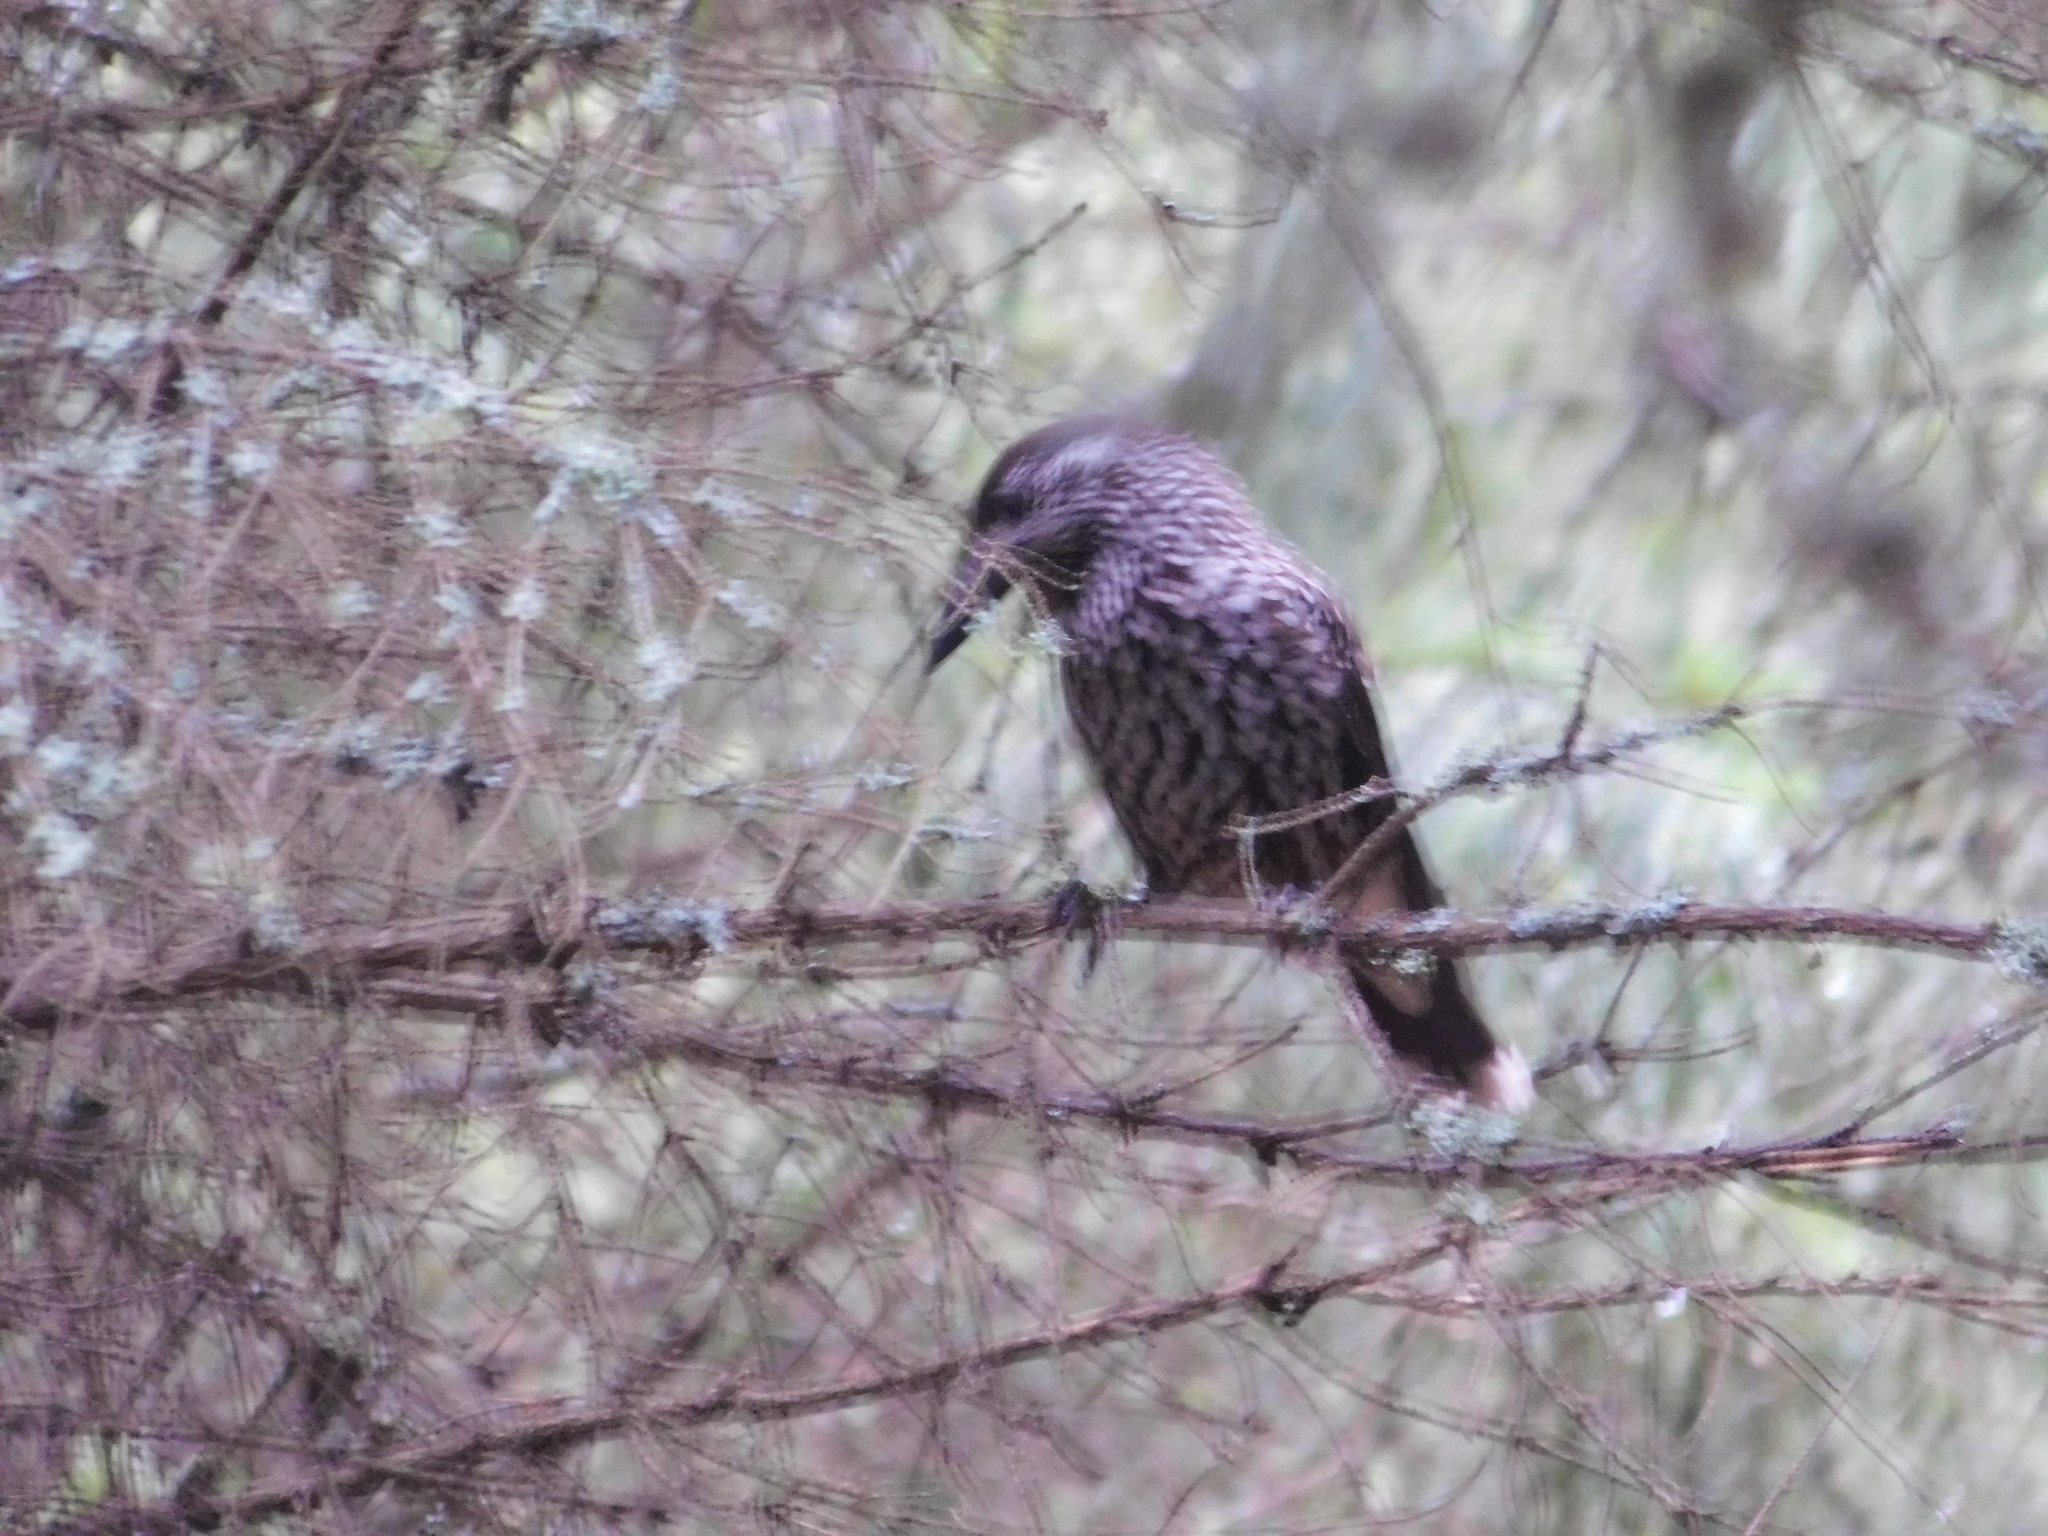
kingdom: Animalia
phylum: Chordata
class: Aves
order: Passeriformes
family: Corvidae
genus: Nucifraga
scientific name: Nucifraga caryocatactes
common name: Spotted nutcracker
